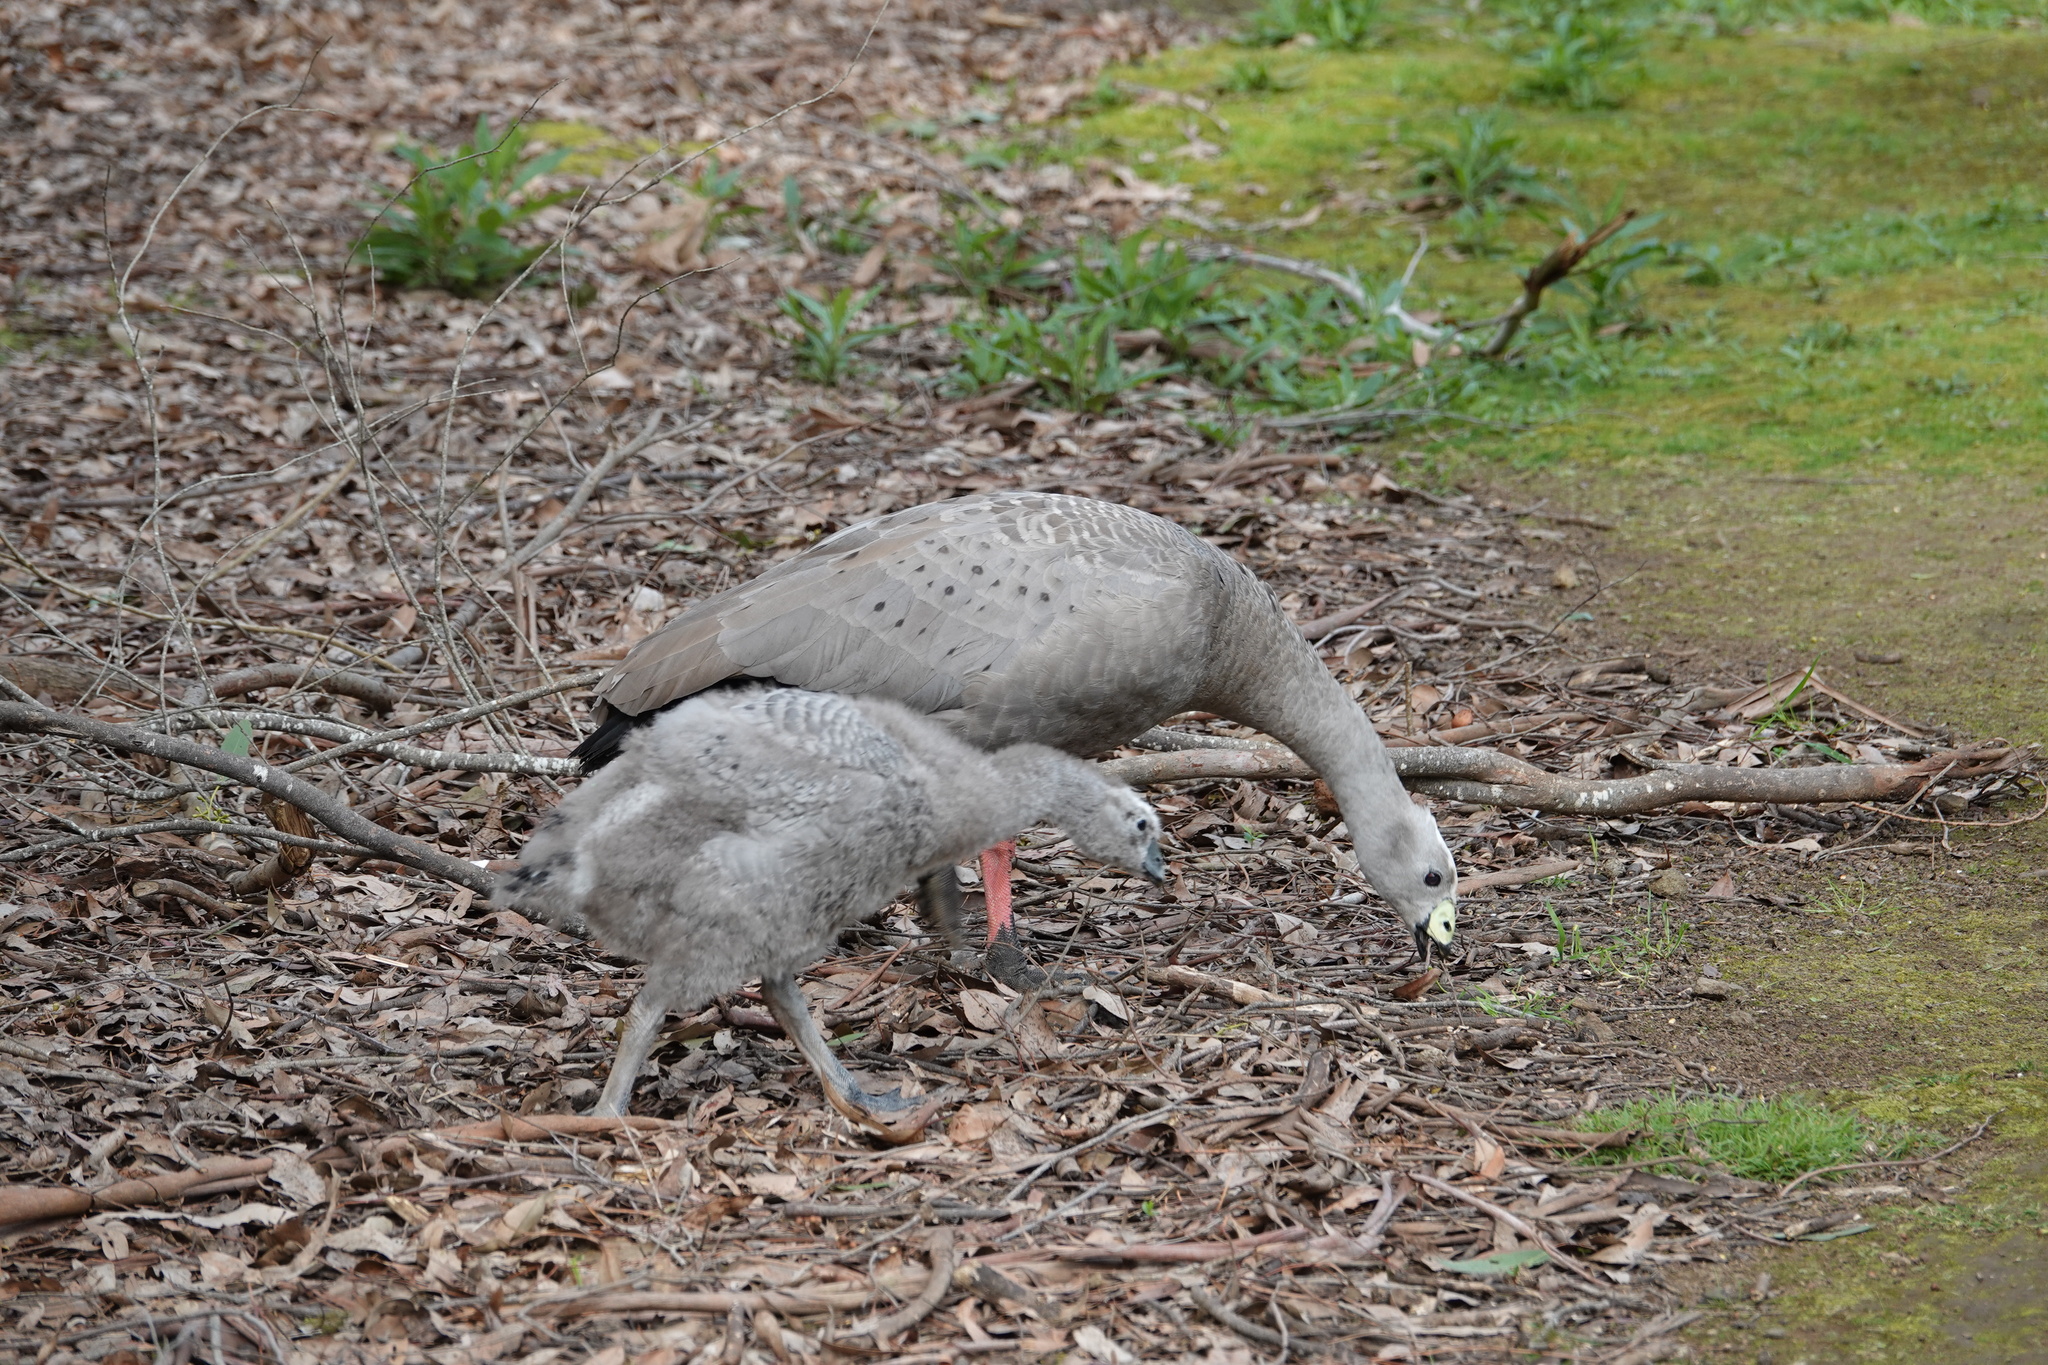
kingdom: Animalia
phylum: Chordata
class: Aves
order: Anseriformes
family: Anatidae
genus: Cereopsis
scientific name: Cereopsis novaehollandiae
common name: Cape barren goose
